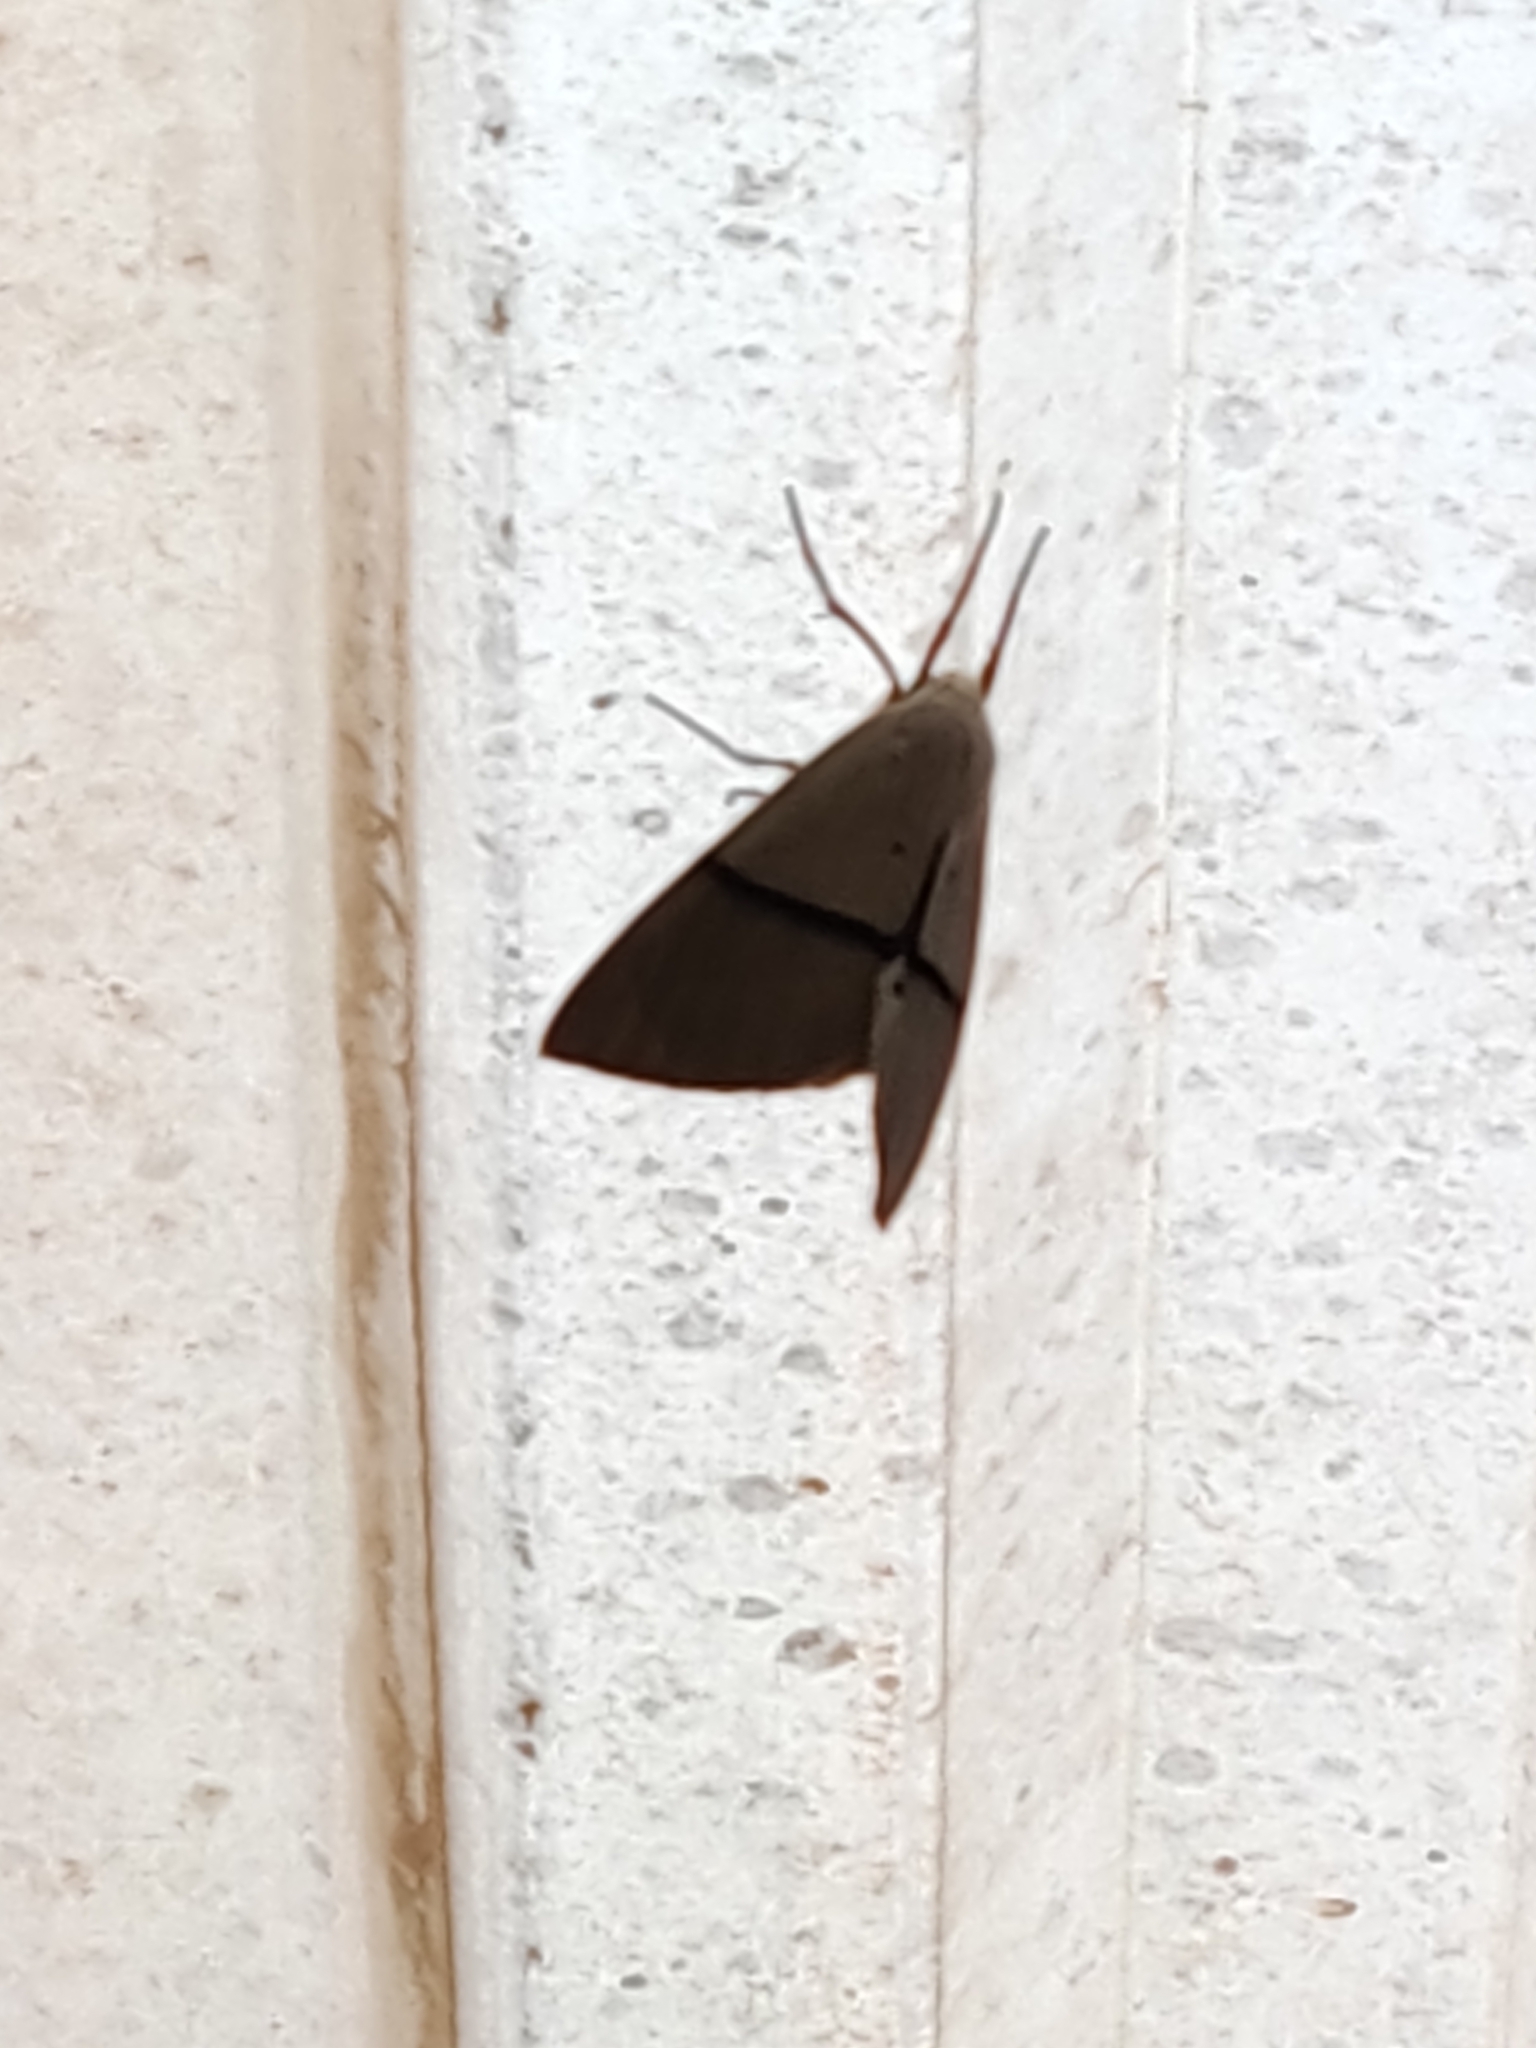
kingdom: Animalia
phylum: Arthropoda
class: Insecta
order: Lepidoptera
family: Geometridae
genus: Gastrophora
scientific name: Gastrophora henricaria
